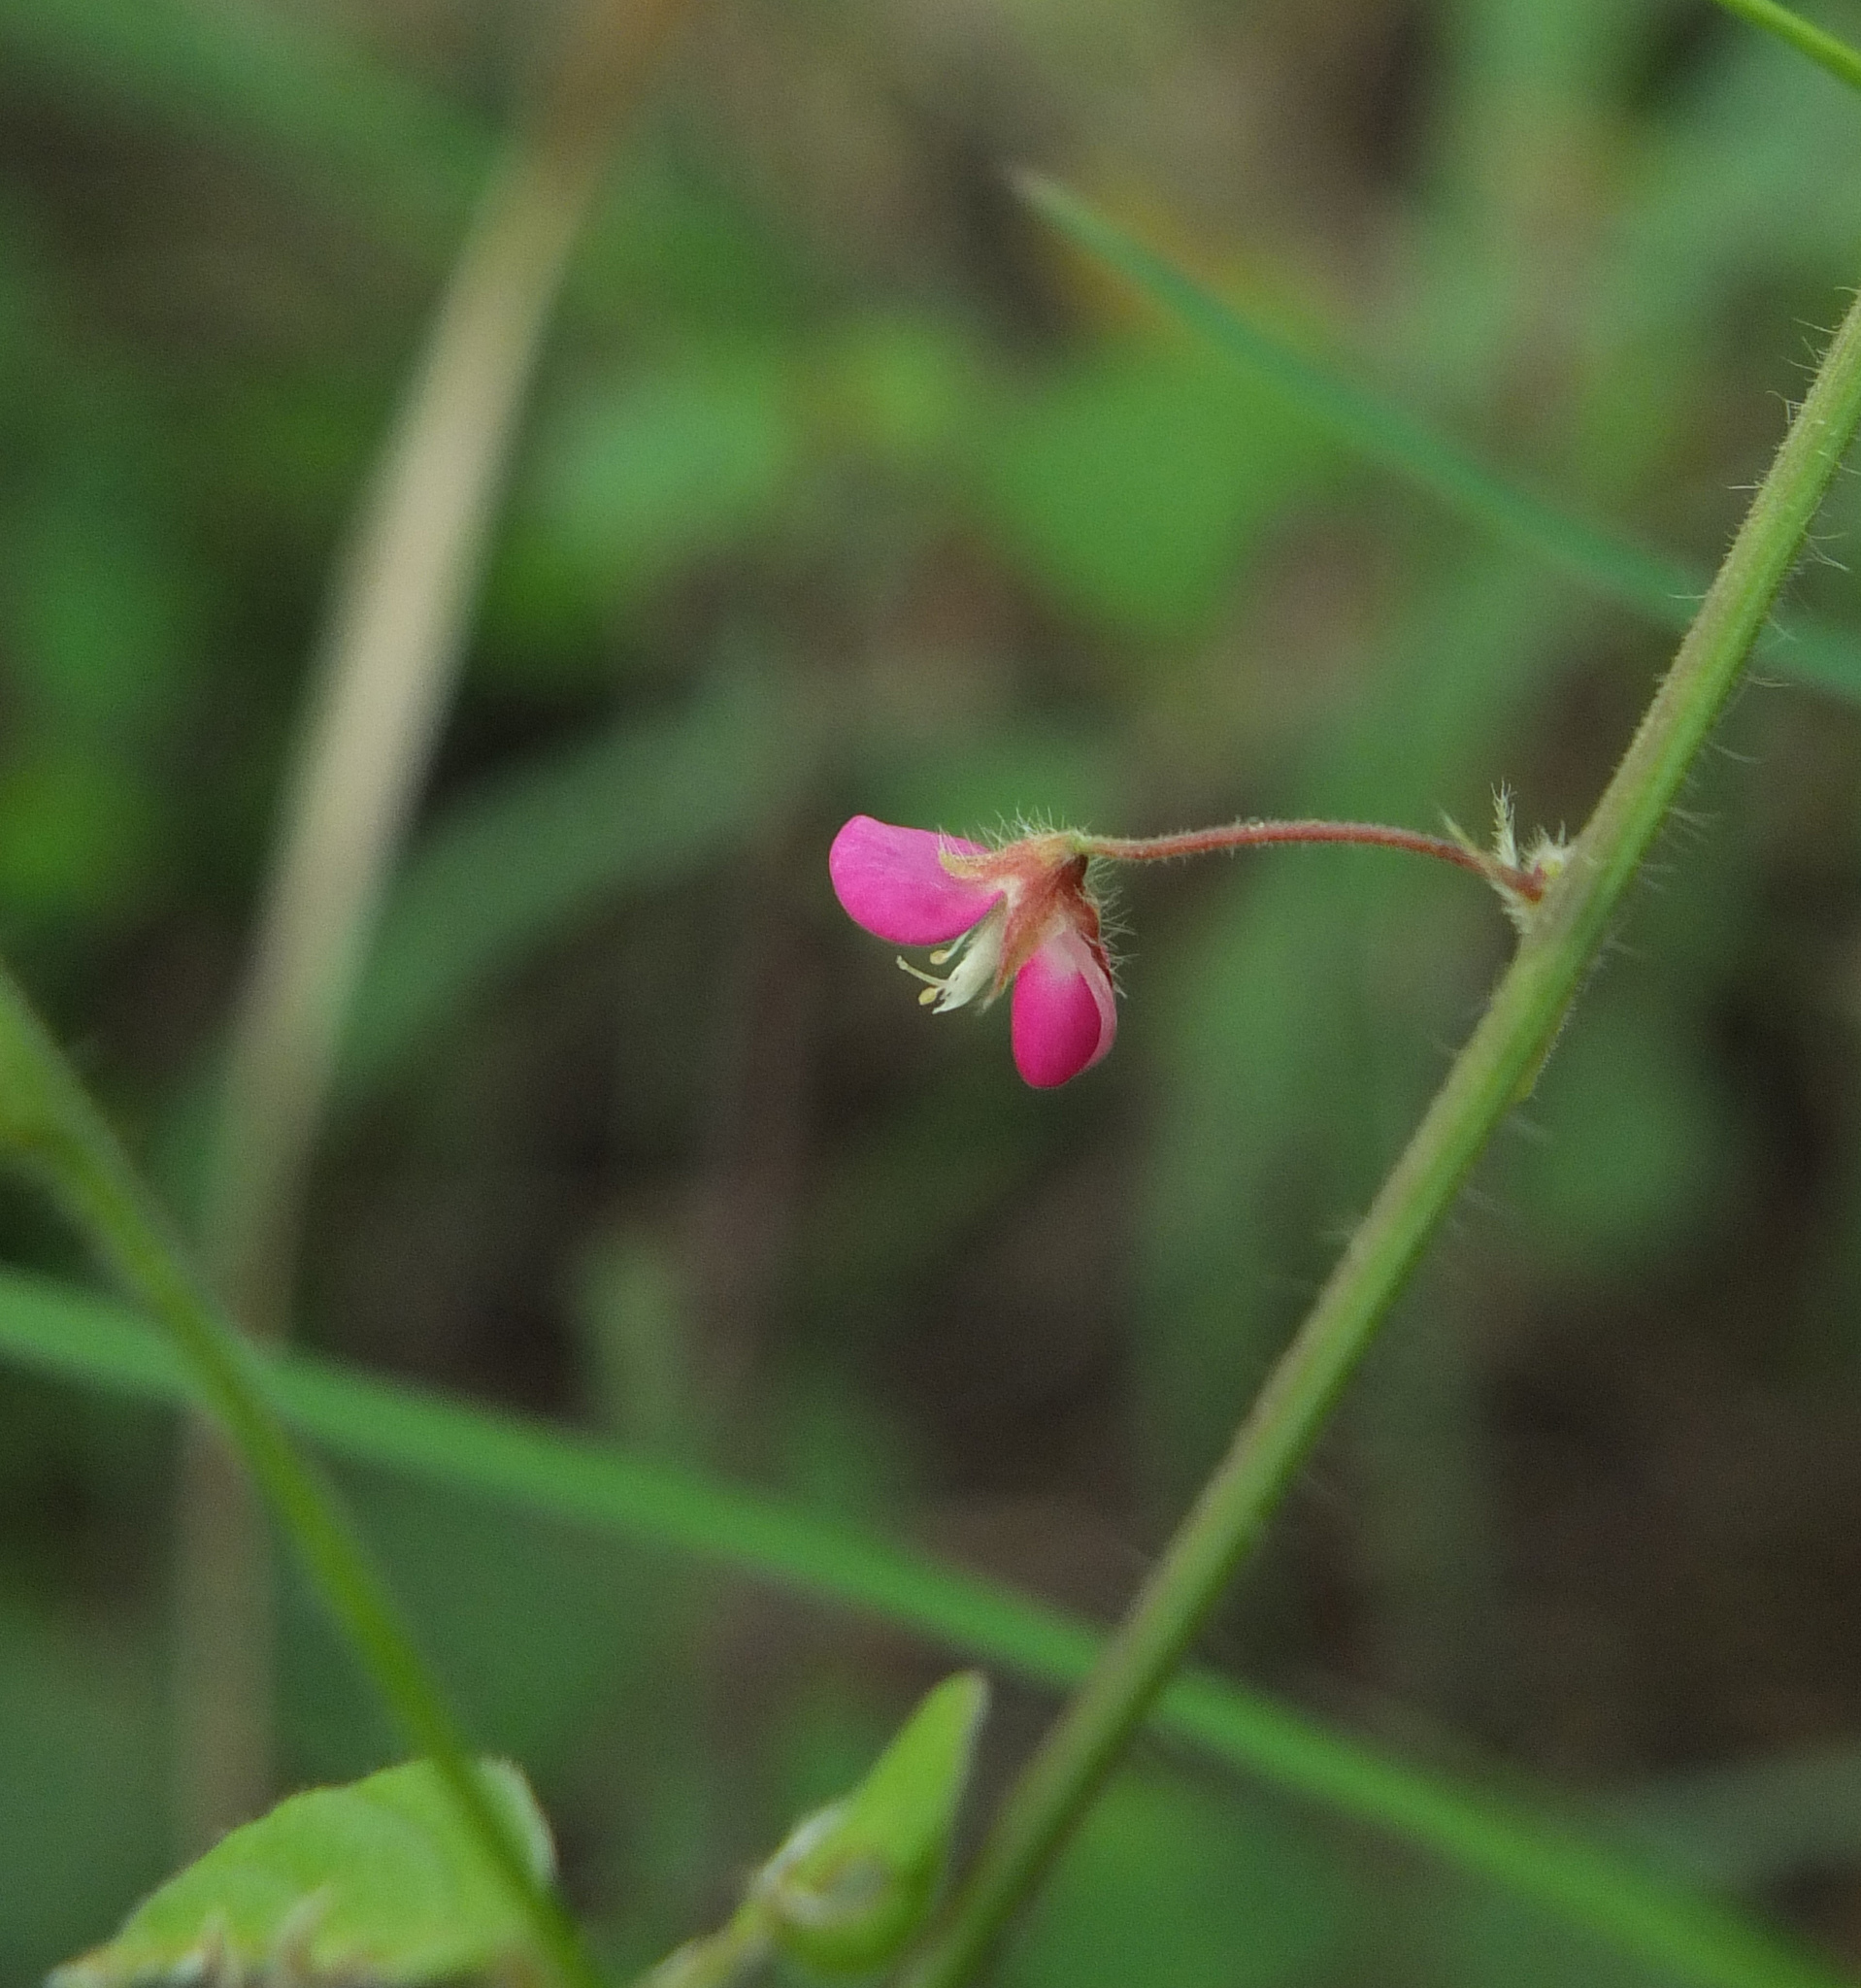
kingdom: Plantae
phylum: Tracheophyta
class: Magnoliopsida
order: Fabales
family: Fabaceae
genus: Pseudarthria
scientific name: Pseudarthria viscida
